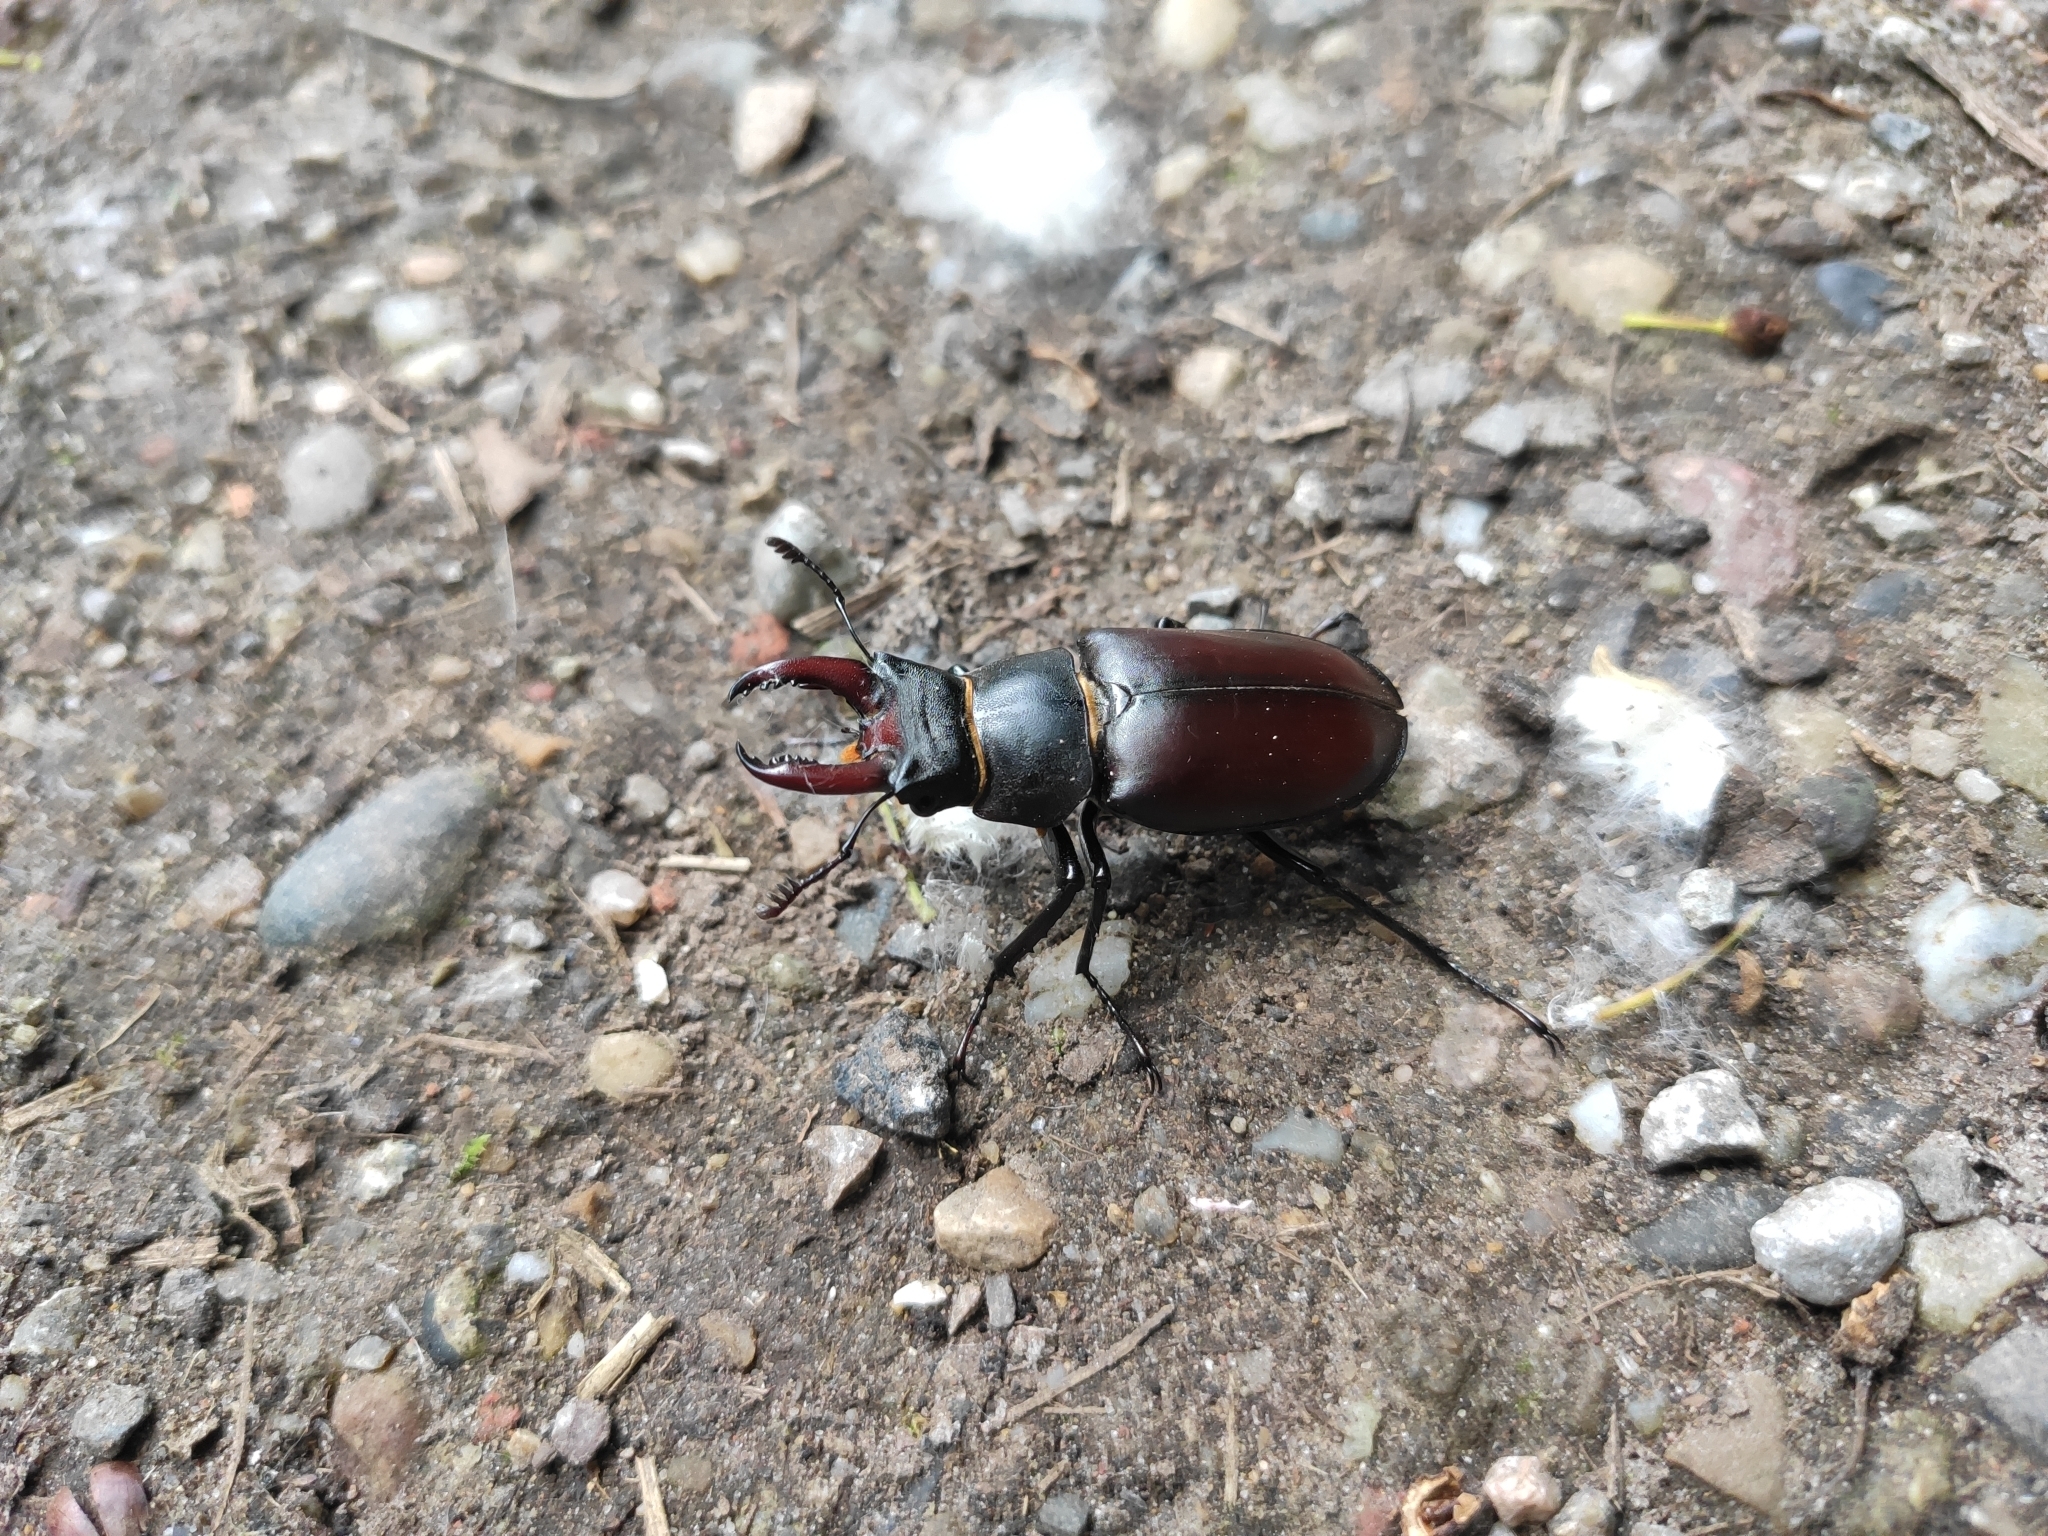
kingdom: Animalia
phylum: Arthropoda
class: Insecta
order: Coleoptera
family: Lucanidae
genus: Lucanus
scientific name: Lucanus cervus
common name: Stag beetle
